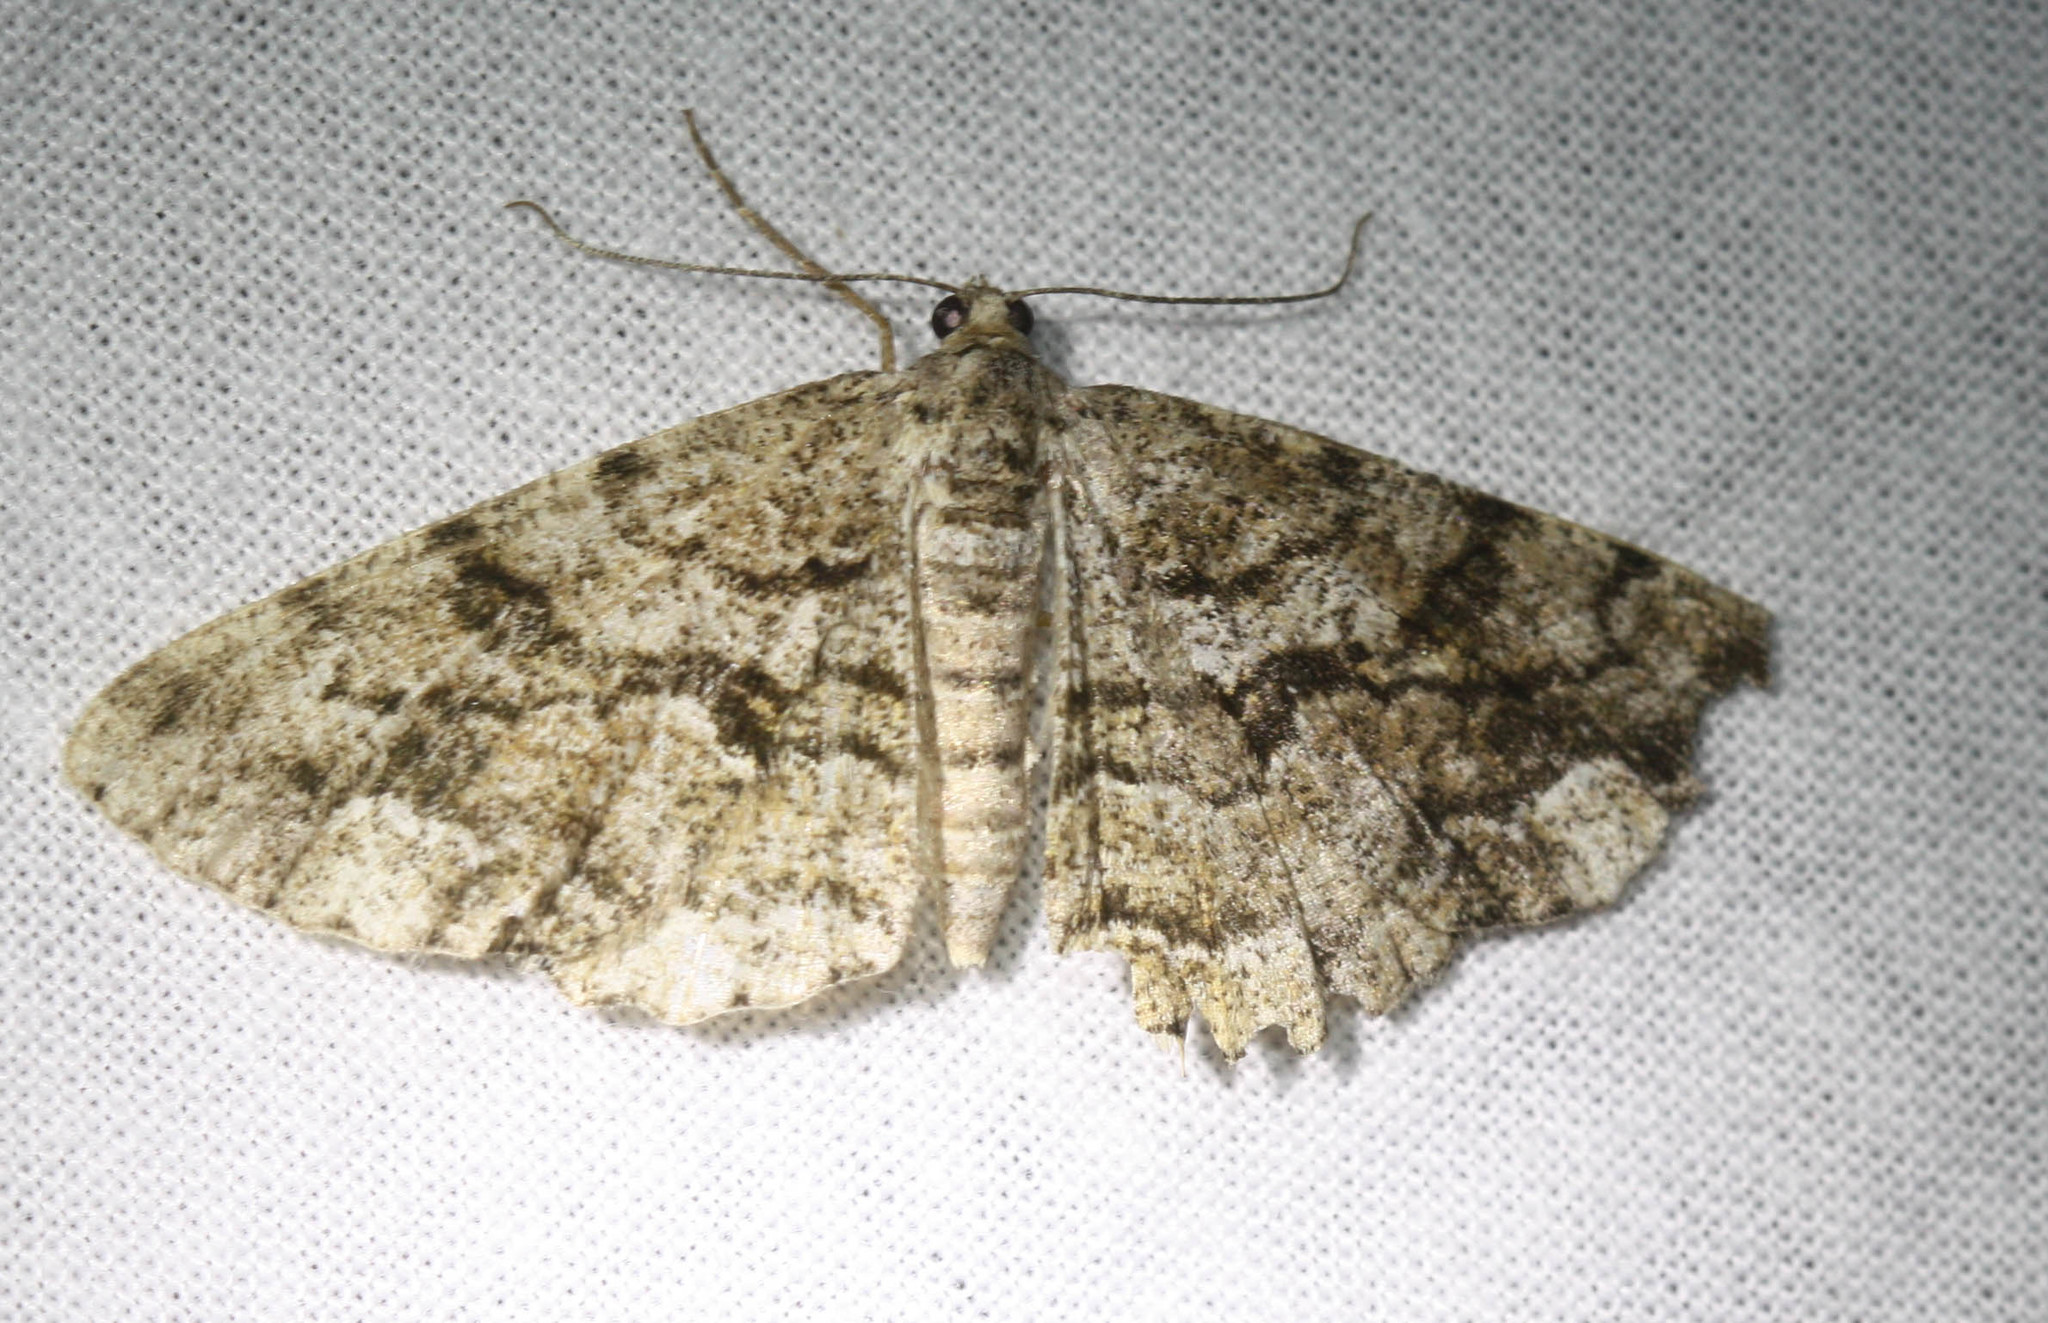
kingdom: Animalia
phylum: Arthropoda
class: Insecta
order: Lepidoptera
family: Geometridae
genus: Peribatodes
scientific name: Peribatodes secundaria
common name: Feathered beauty
